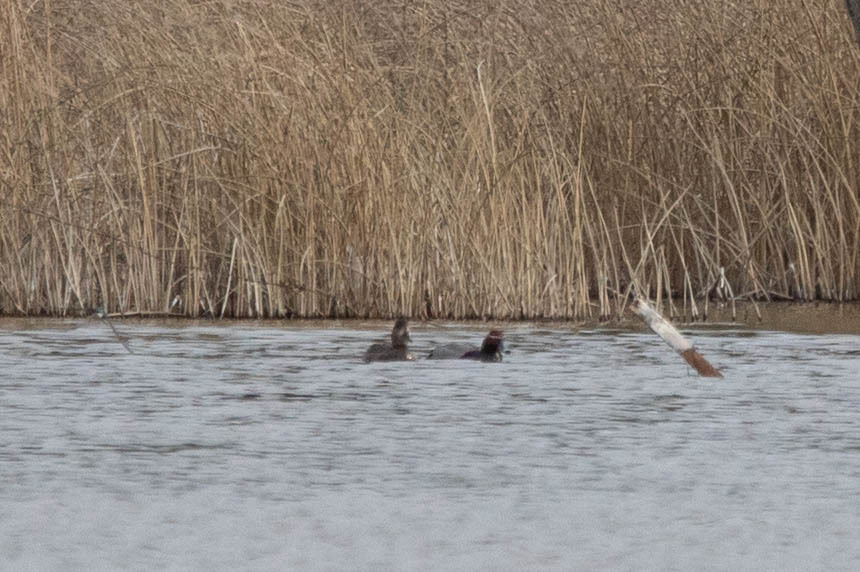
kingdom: Animalia
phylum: Chordata
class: Aves
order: Anseriformes
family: Anatidae
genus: Aythya
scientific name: Aythya americana
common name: Redhead
